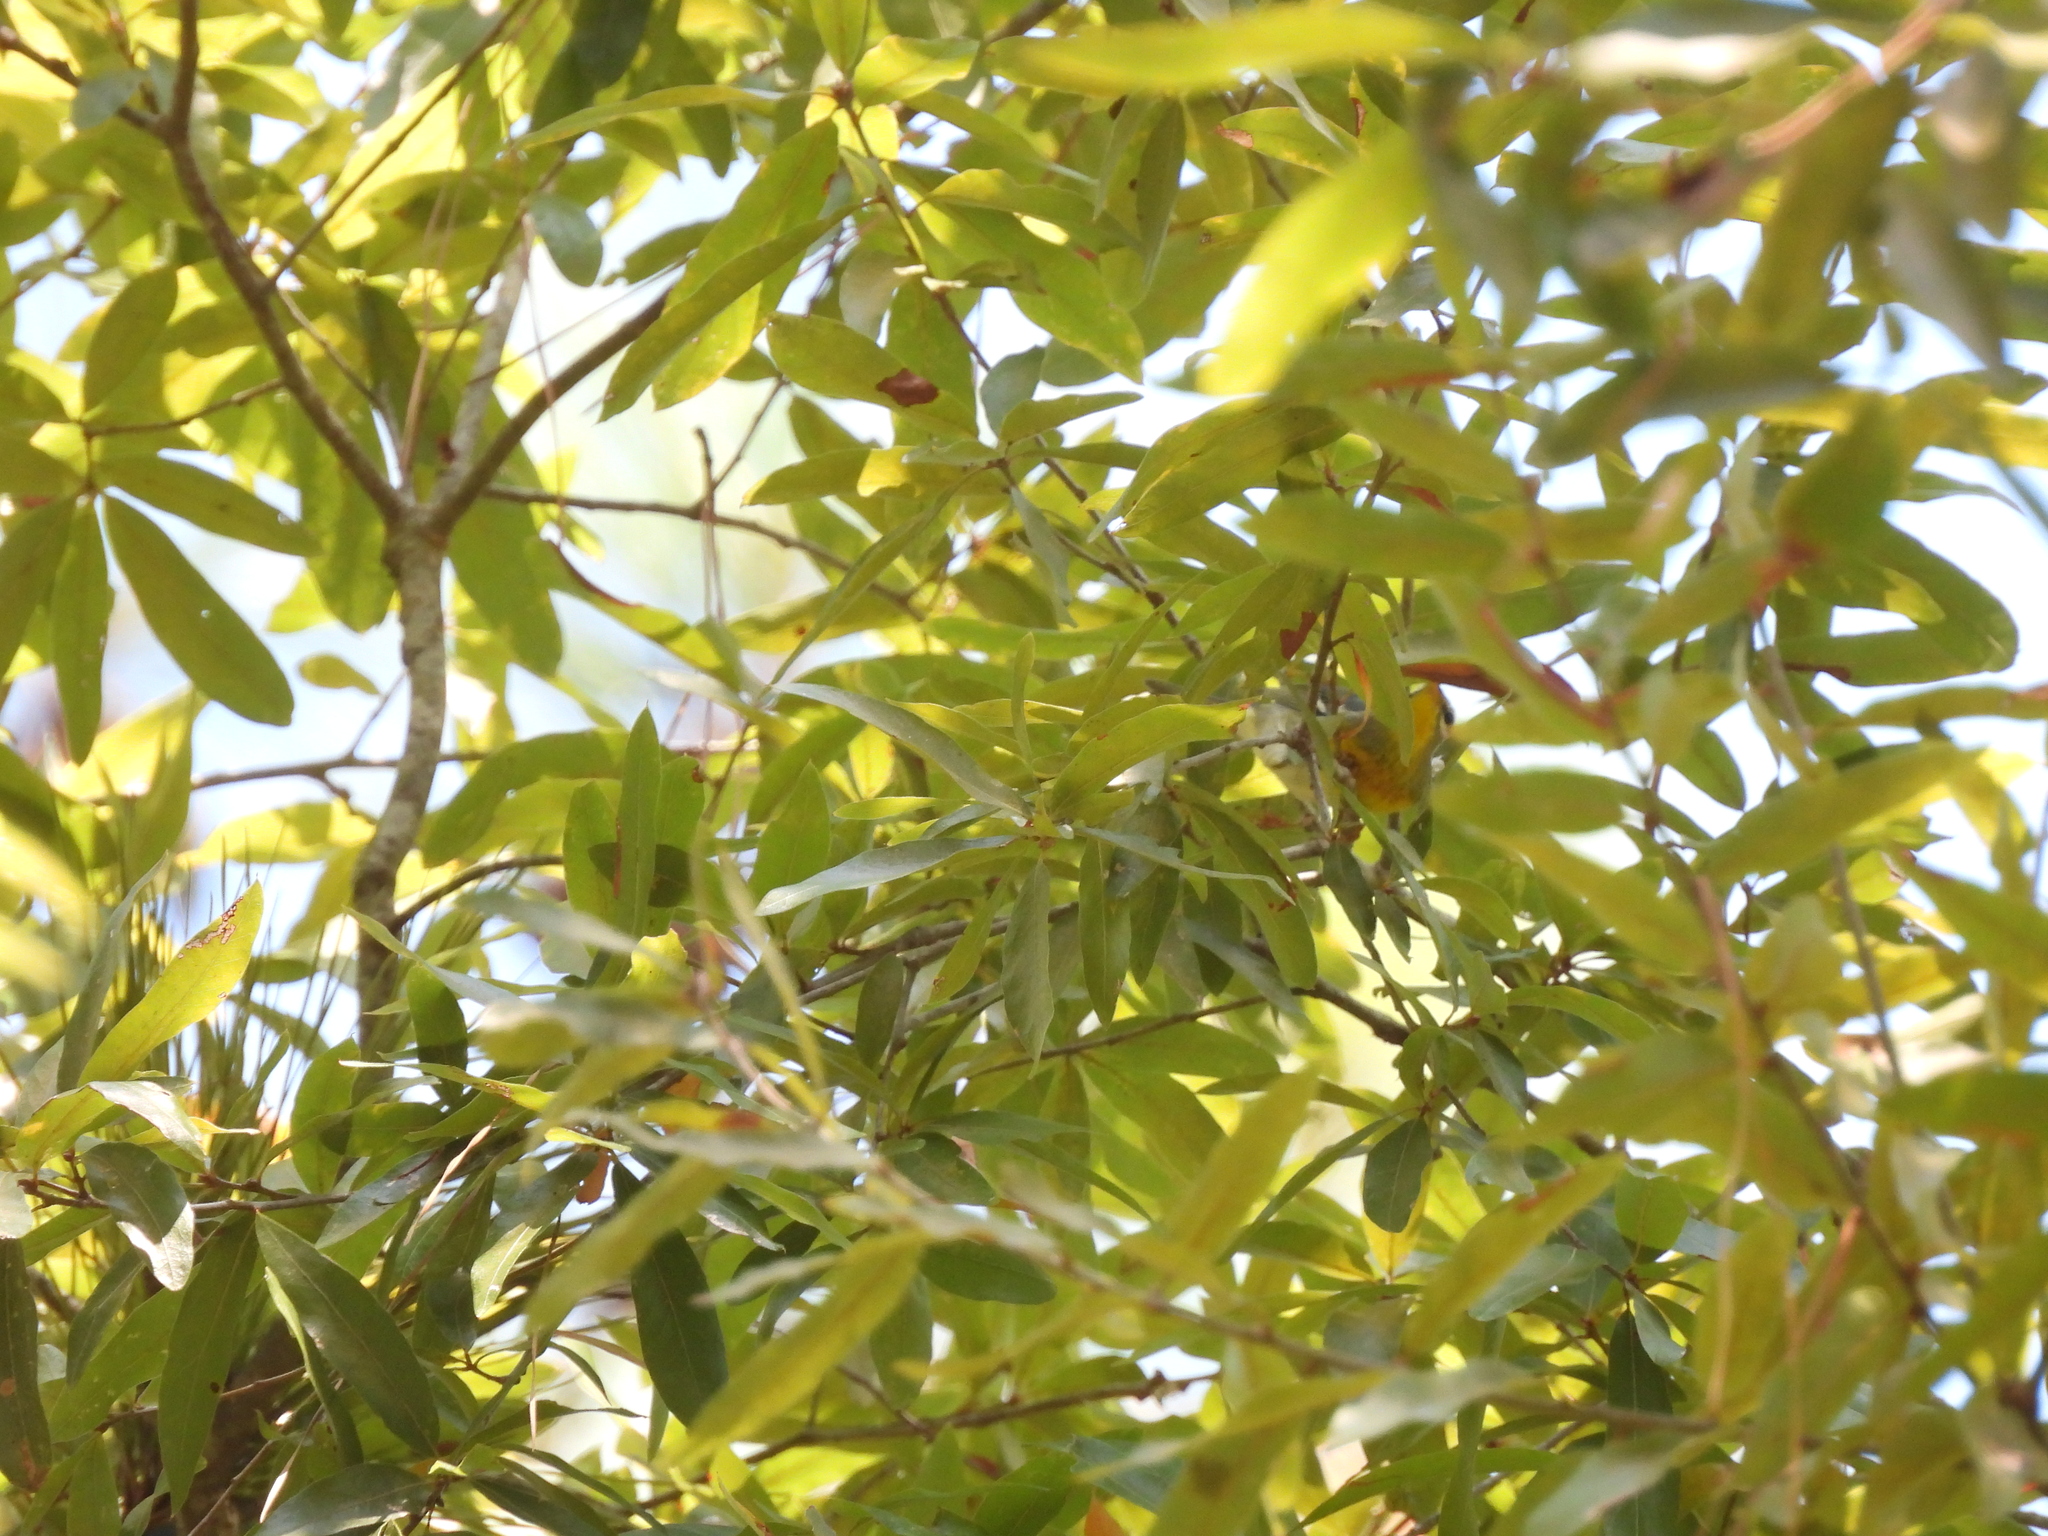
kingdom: Animalia
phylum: Chordata
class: Aves
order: Passeriformes
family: Parulidae
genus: Setophaga
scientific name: Setophaga americana
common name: Northern parula
